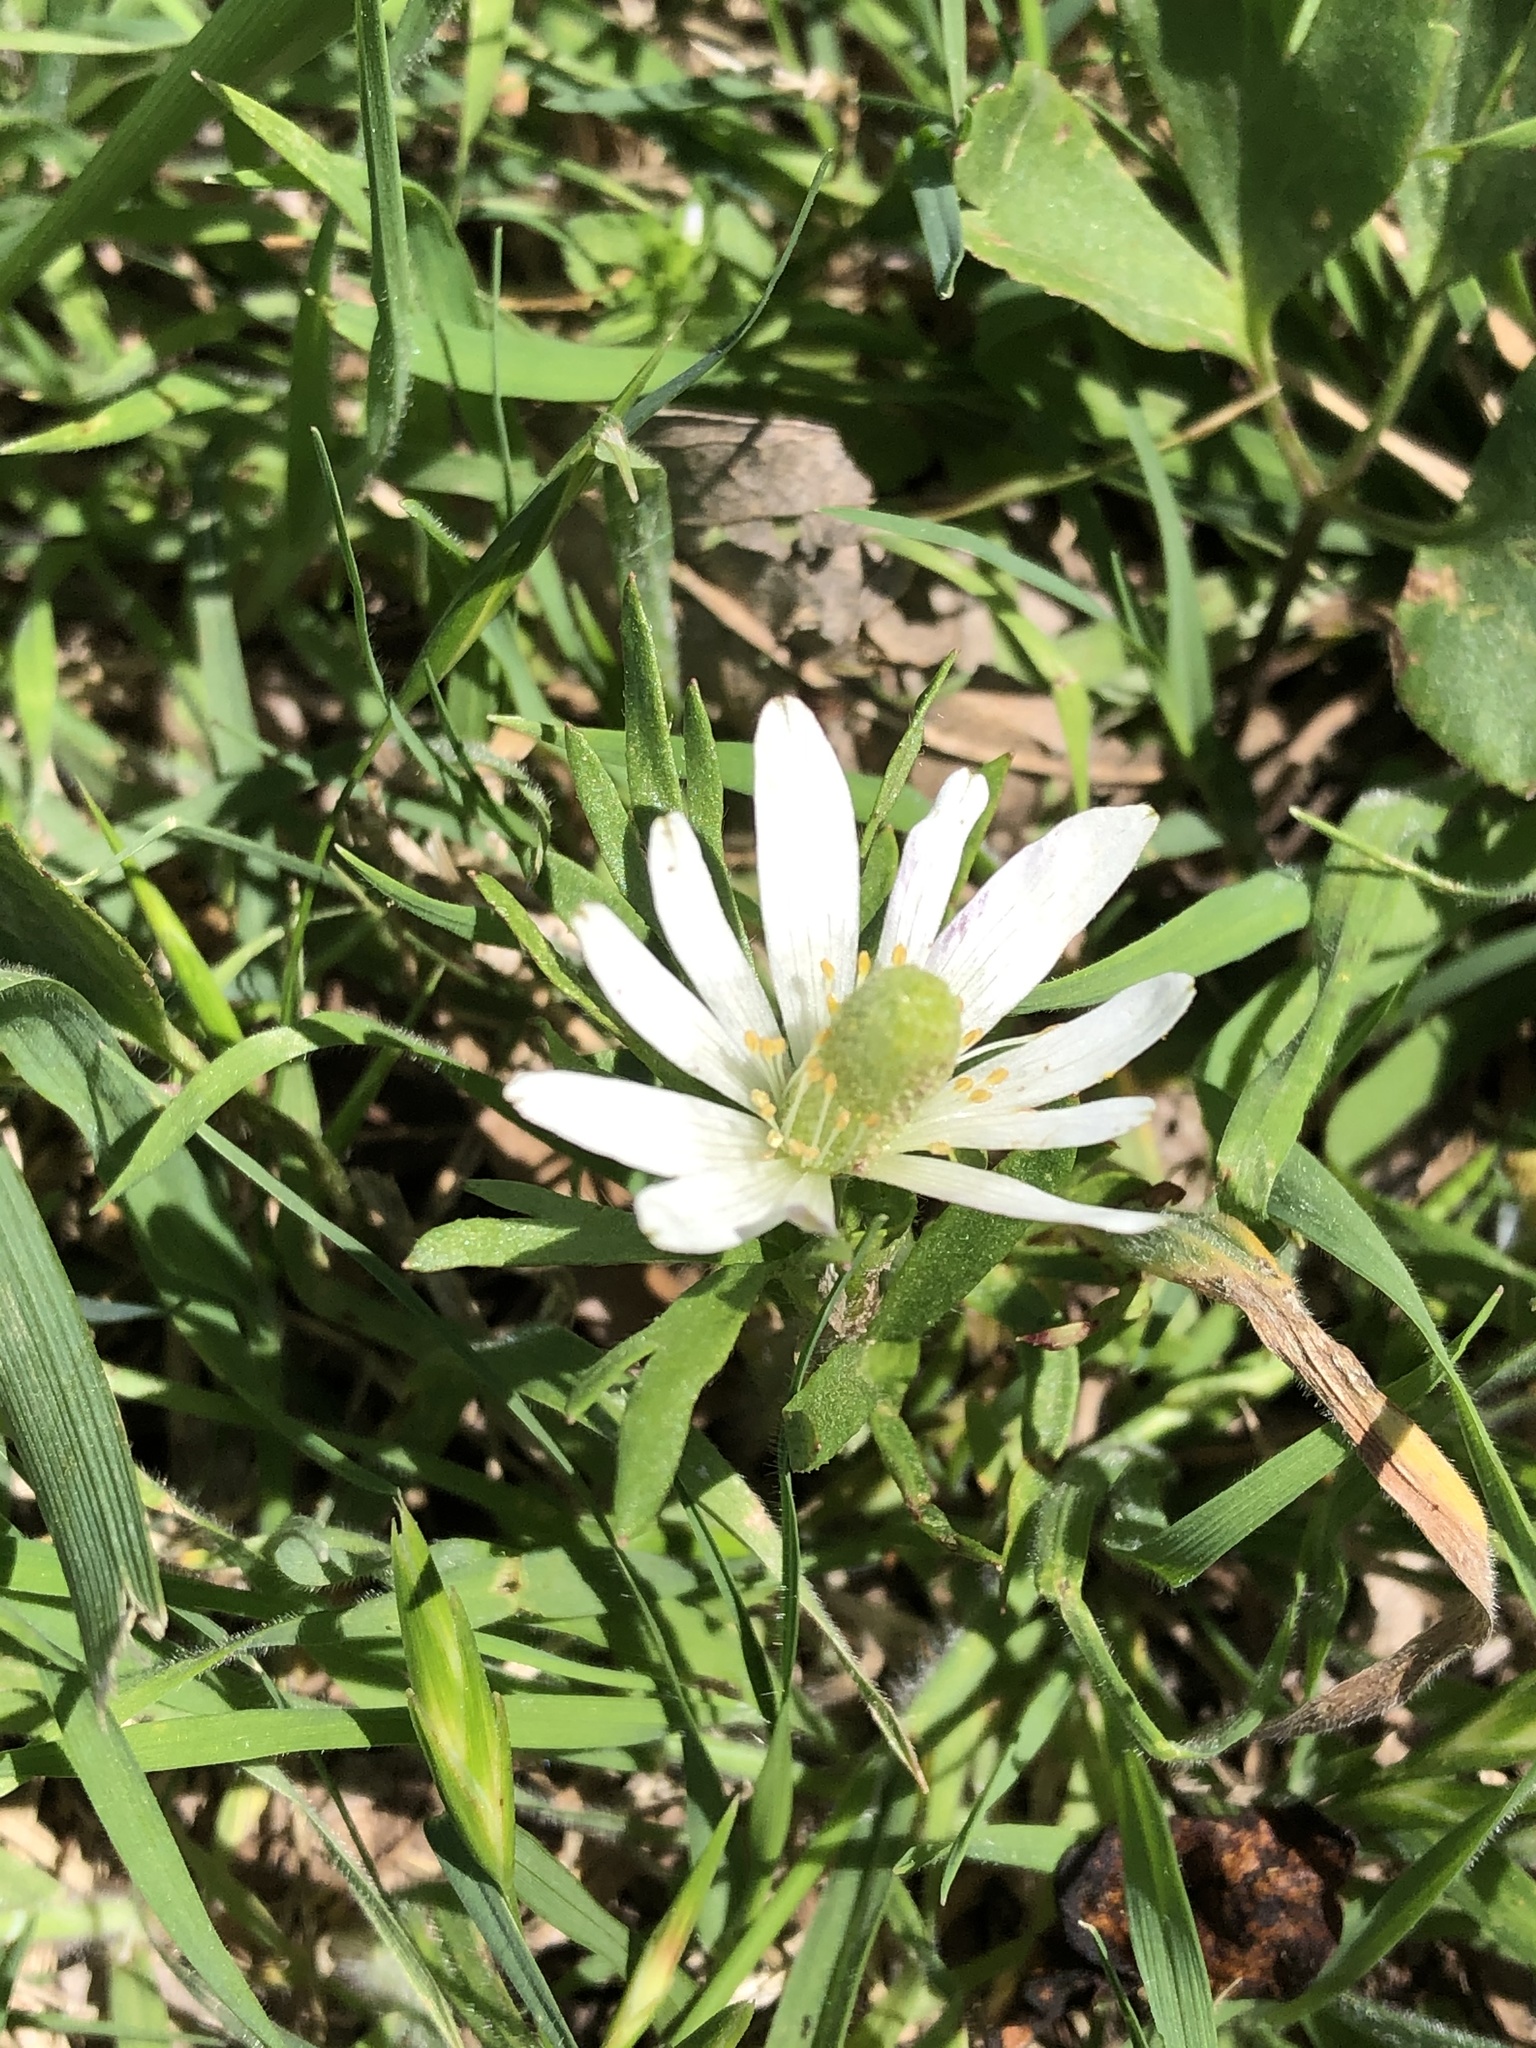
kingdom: Plantae
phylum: Tracheophyta
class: Magnoliopsida
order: Ranunculales
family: Ranunculaceae
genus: Anemone
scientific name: Anemone berlandieri
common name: Ten-petal anemone
